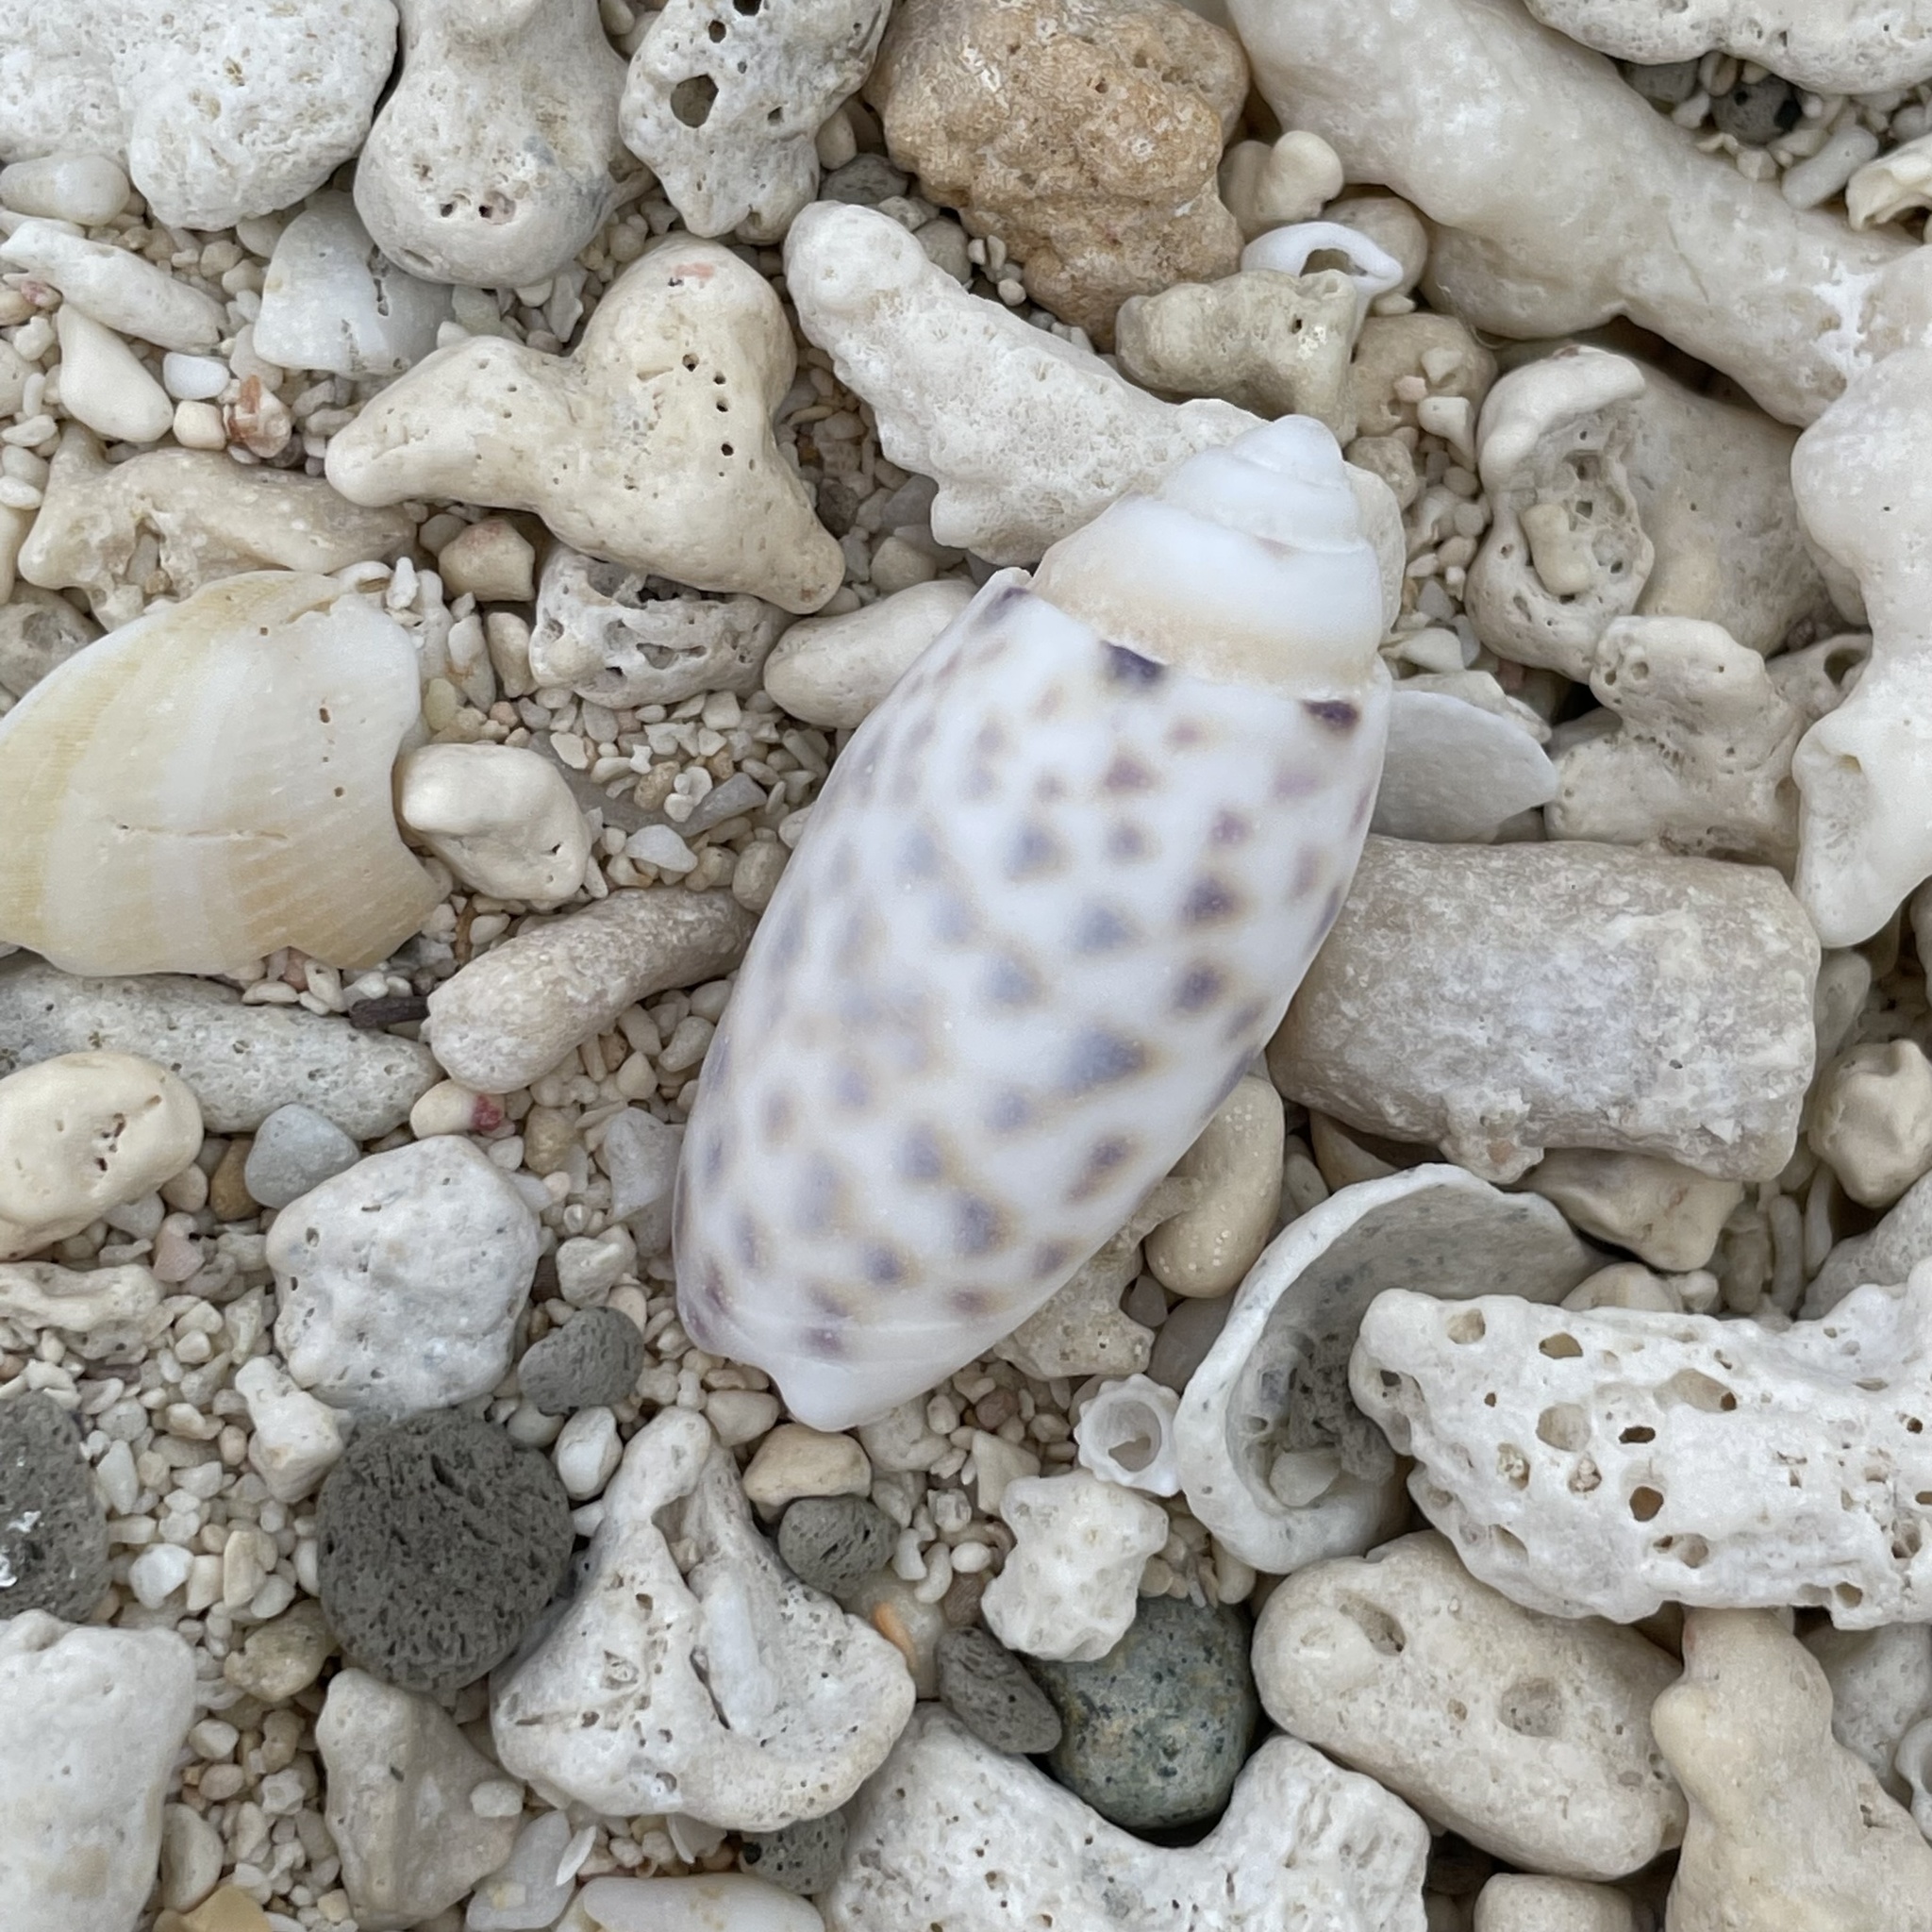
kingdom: Animalia
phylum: Mollusca
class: Gastropoda
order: Neogastropoda
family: Olividae
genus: Oliva
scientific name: Oliva amethystina
